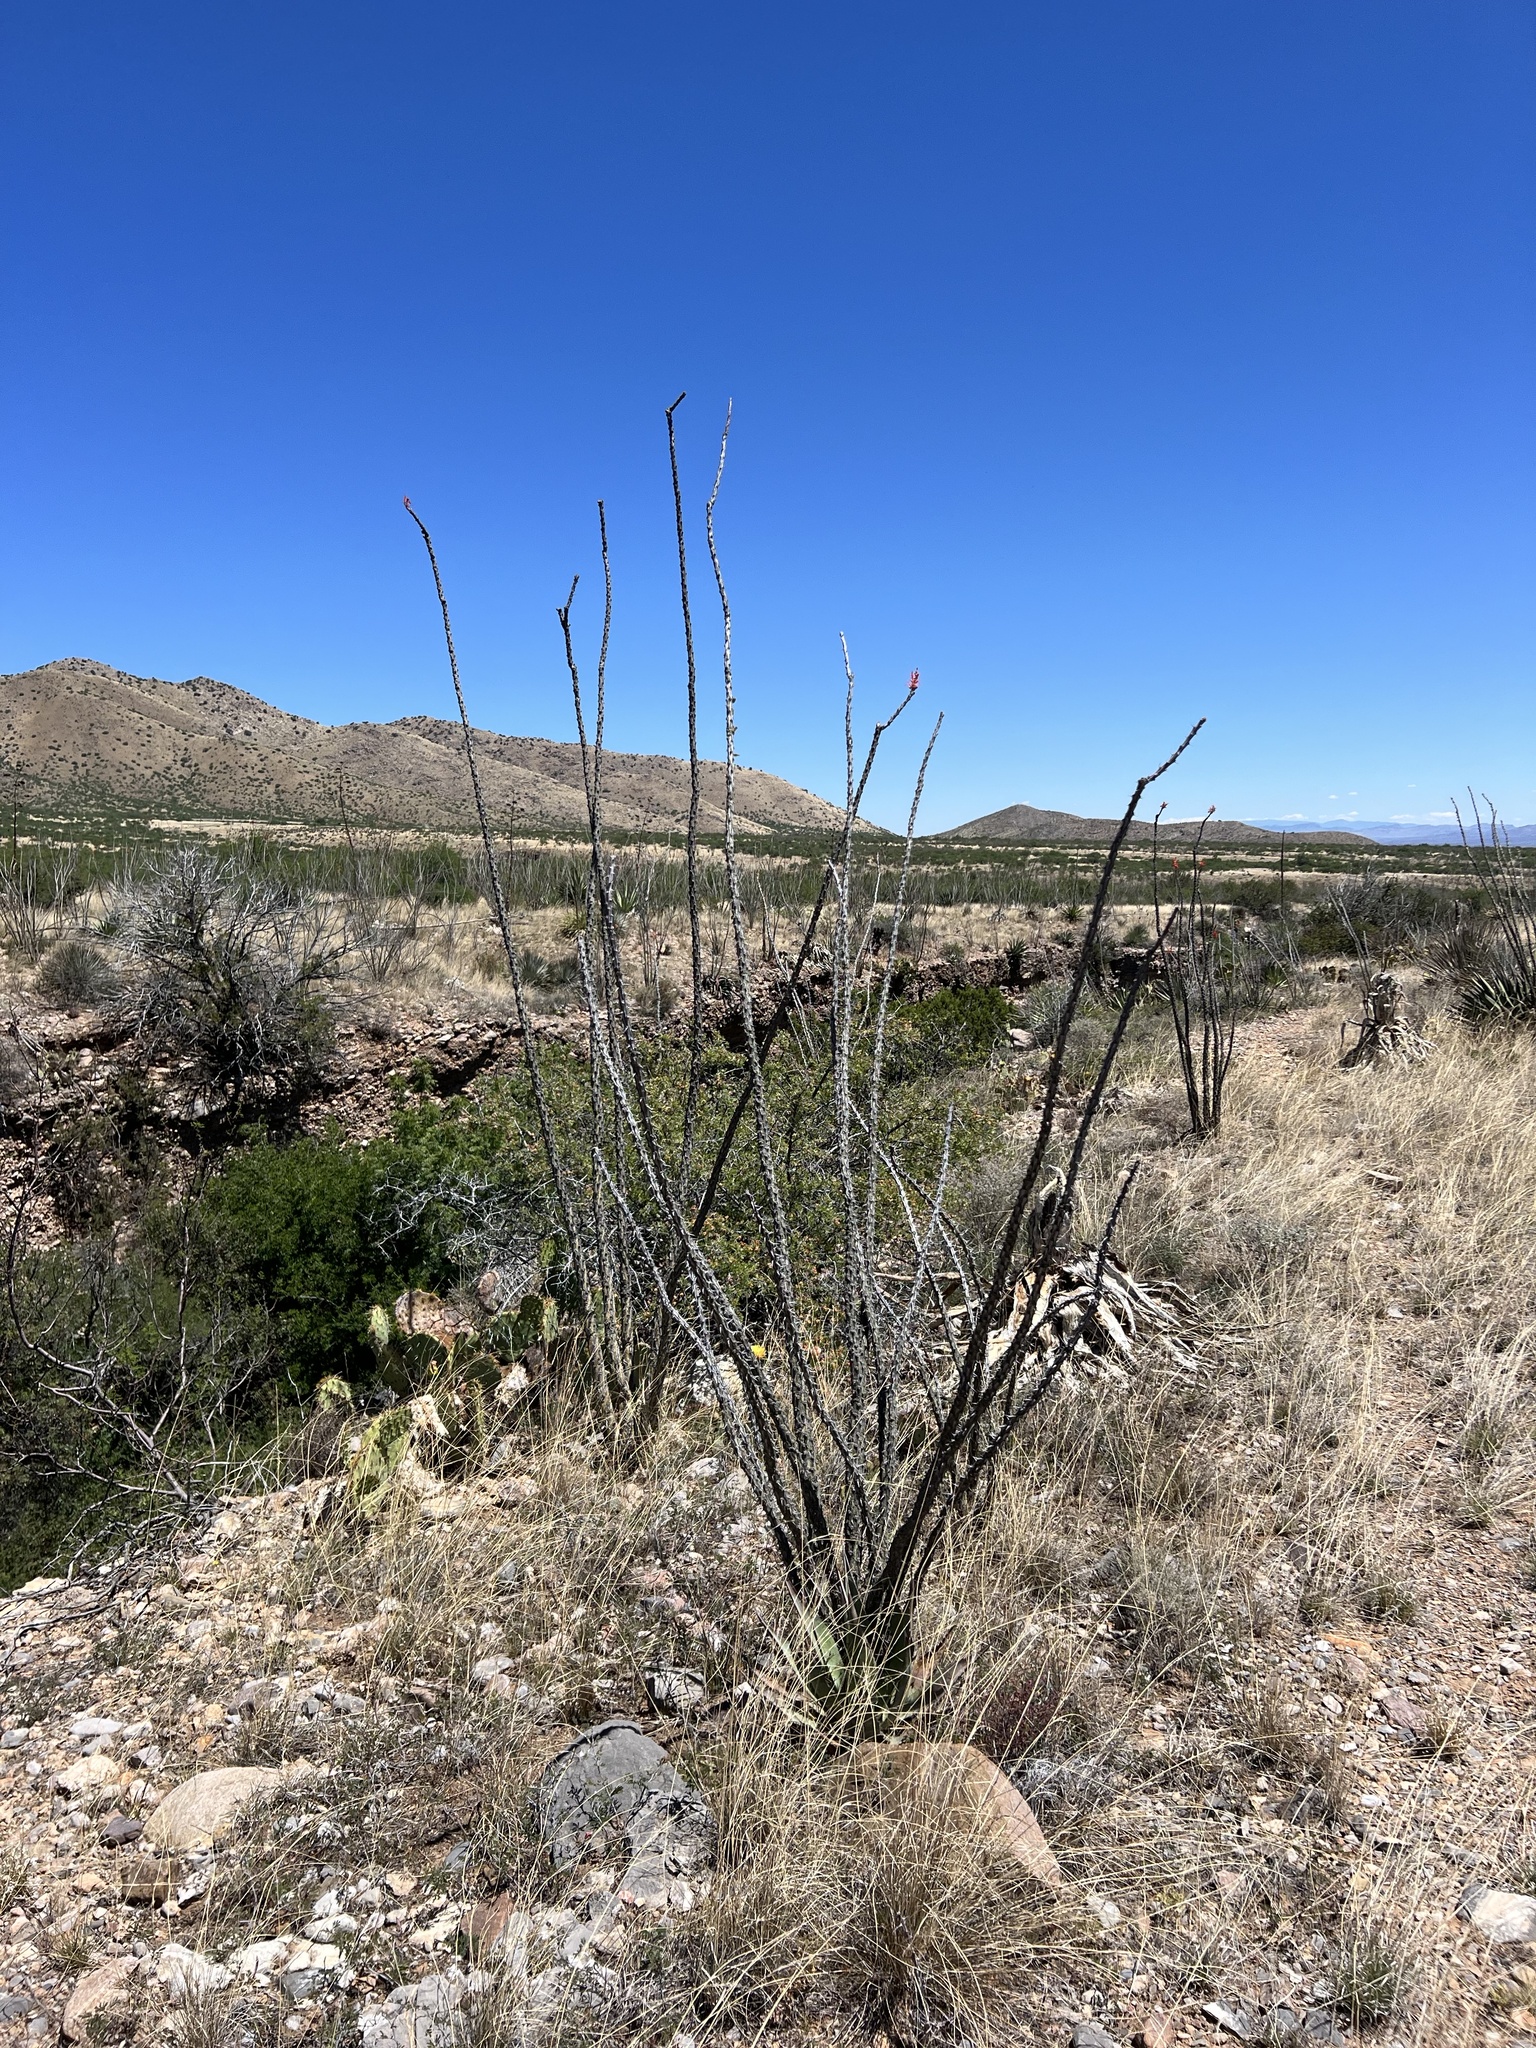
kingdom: Plantae
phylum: Tracheophyta
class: Magnoliopsida
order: Ericales
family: Fouquieriaceae
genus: Fouquieria
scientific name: Fouquieria splendens
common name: Vine-cactus
